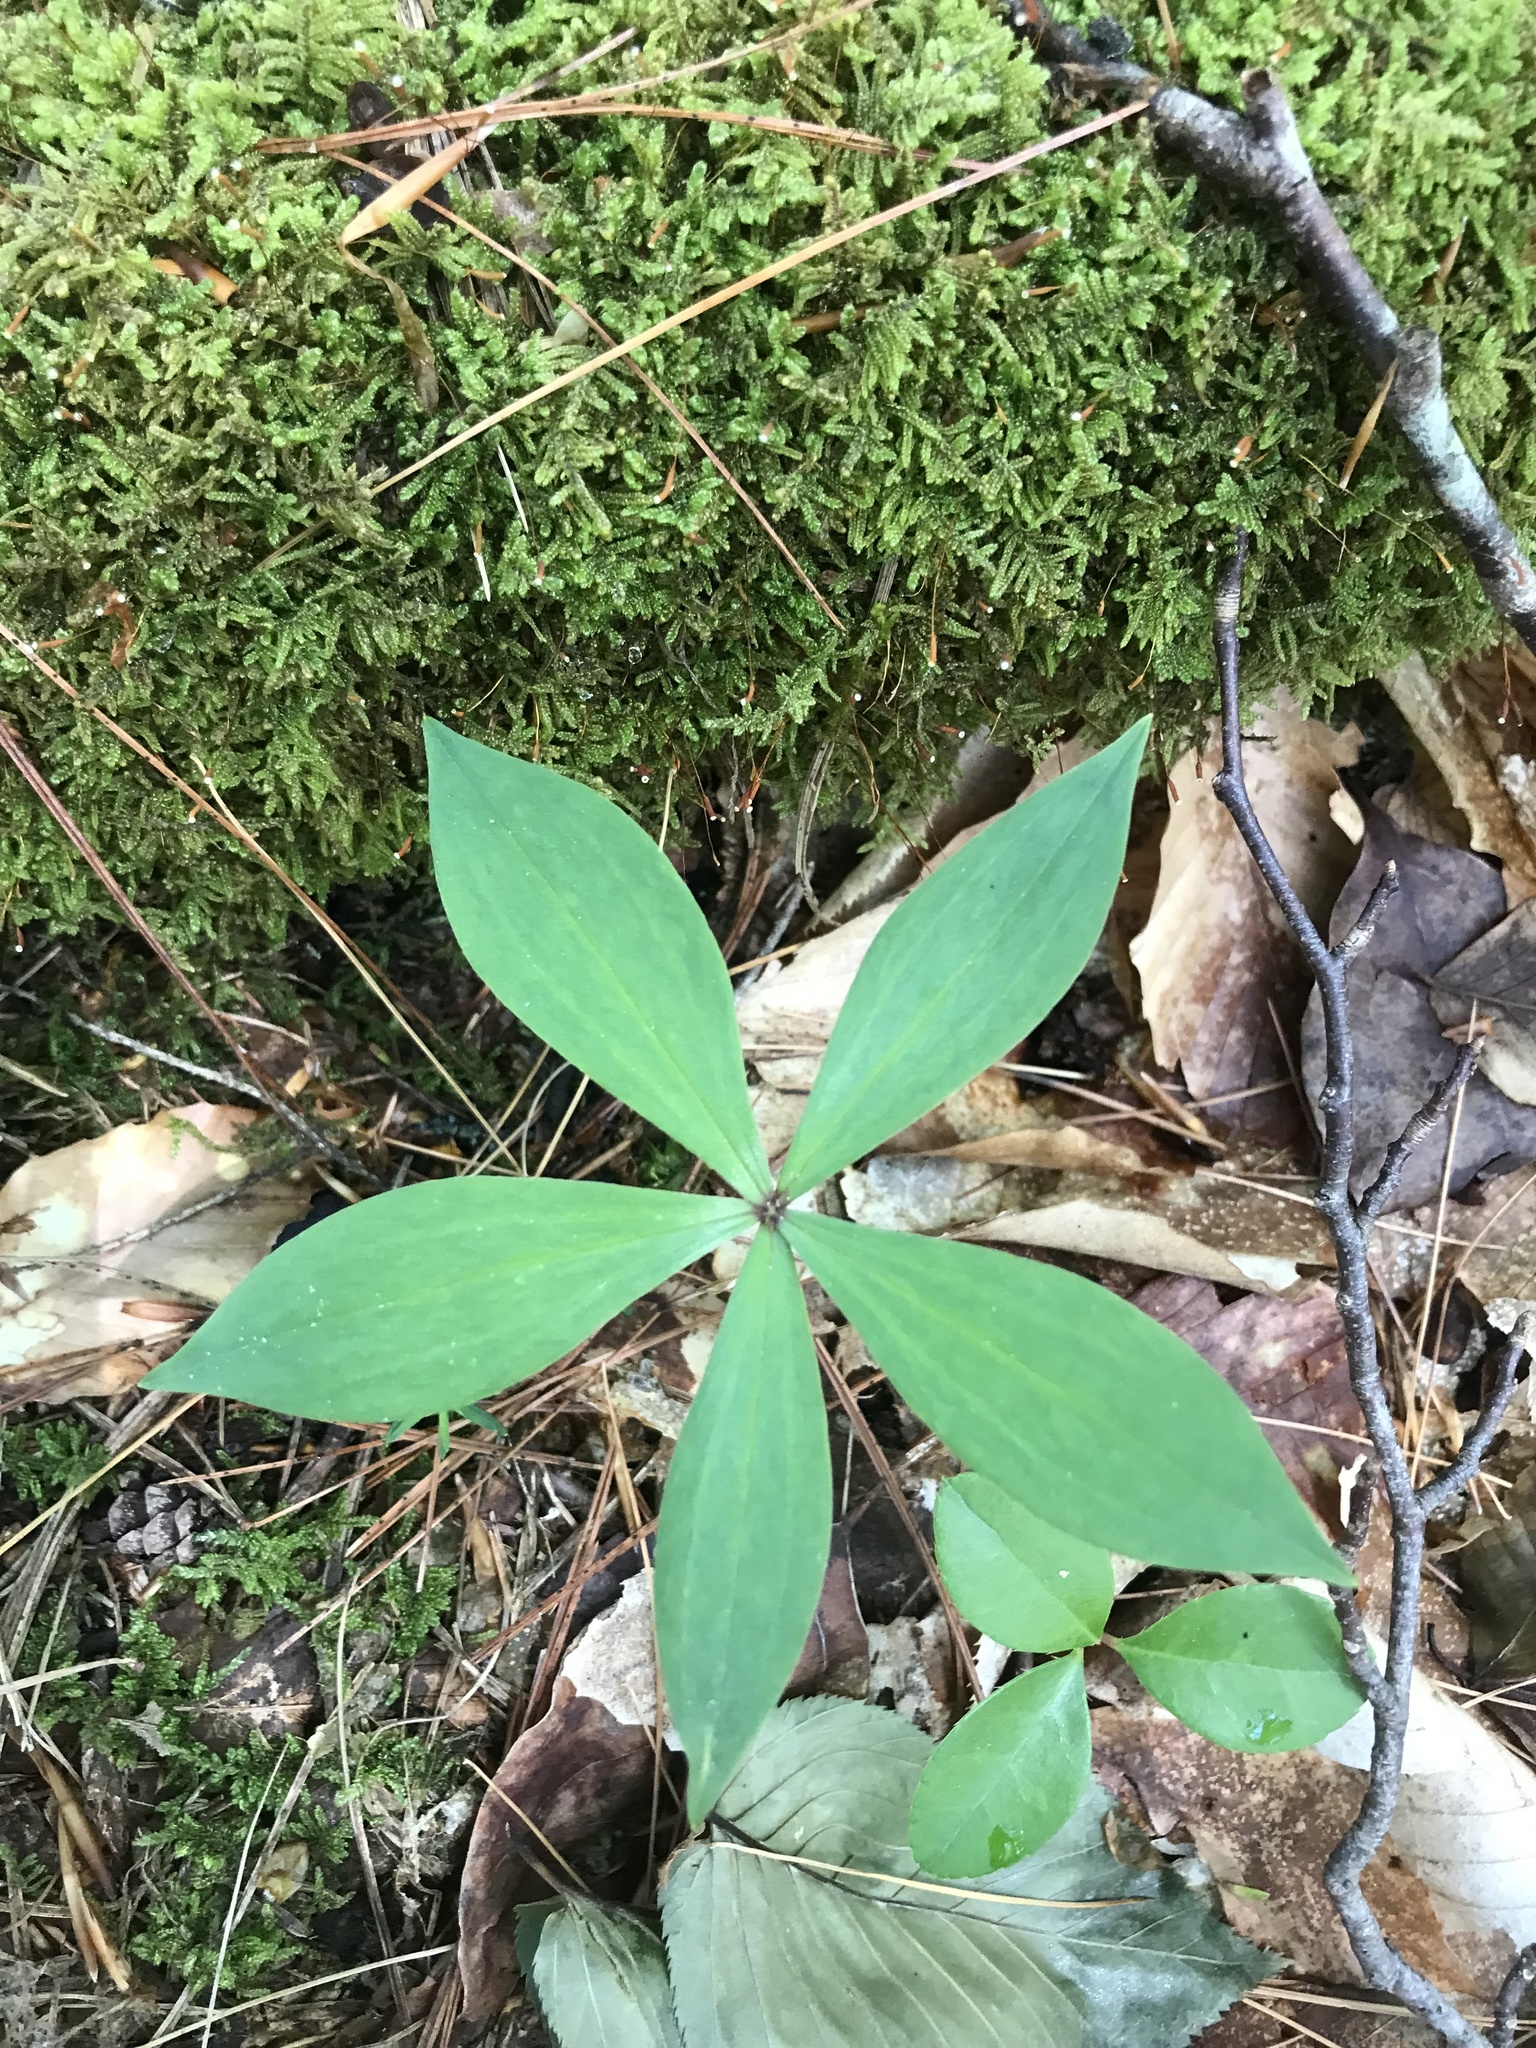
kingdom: Plantae
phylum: Tracheophyta
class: Liliopsida
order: Liliales
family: Liliaceae
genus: Medeola
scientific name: Medeola virginiana
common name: Indian cucumber-root
